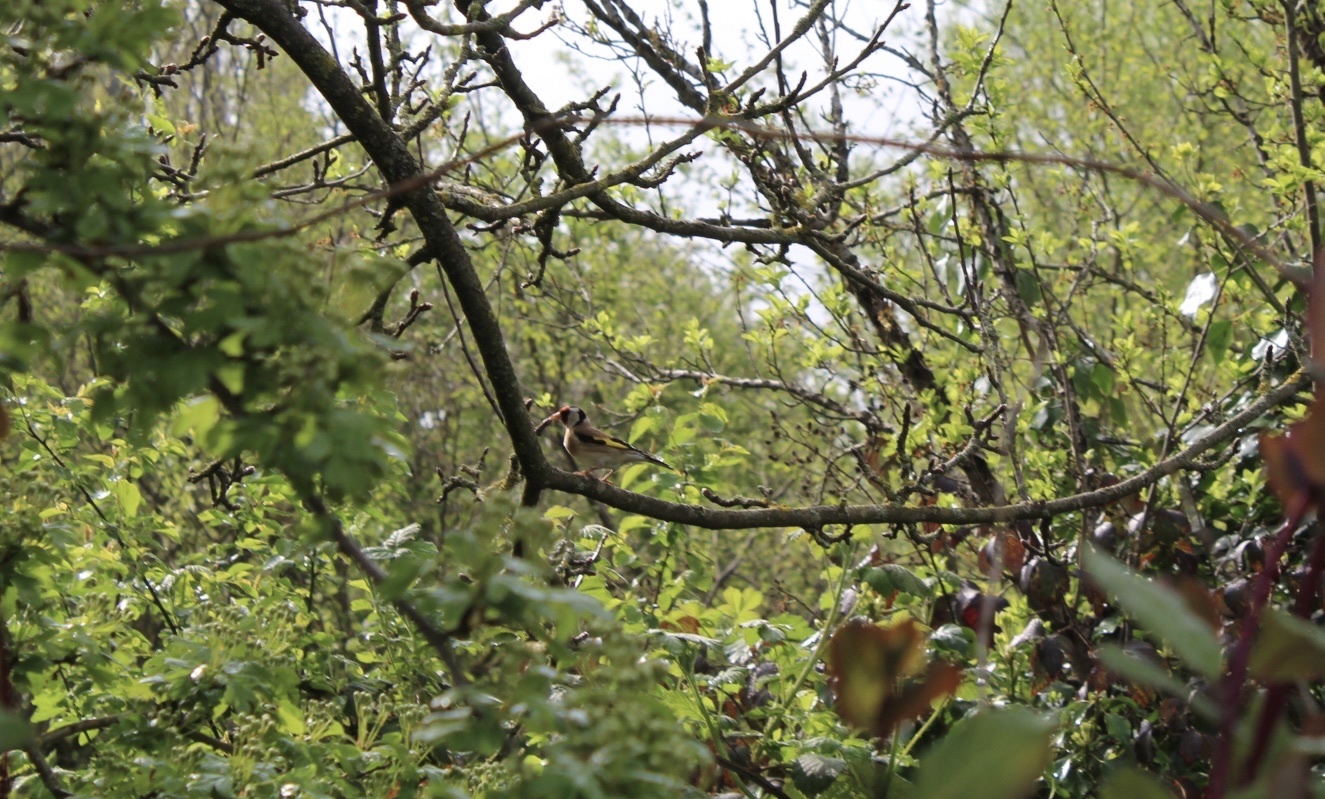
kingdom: Animalia
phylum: Chordata
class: Aves
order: Passeriformes
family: Fringillidae
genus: Carduelis
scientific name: Carduelis carduelis
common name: European goldfinch
